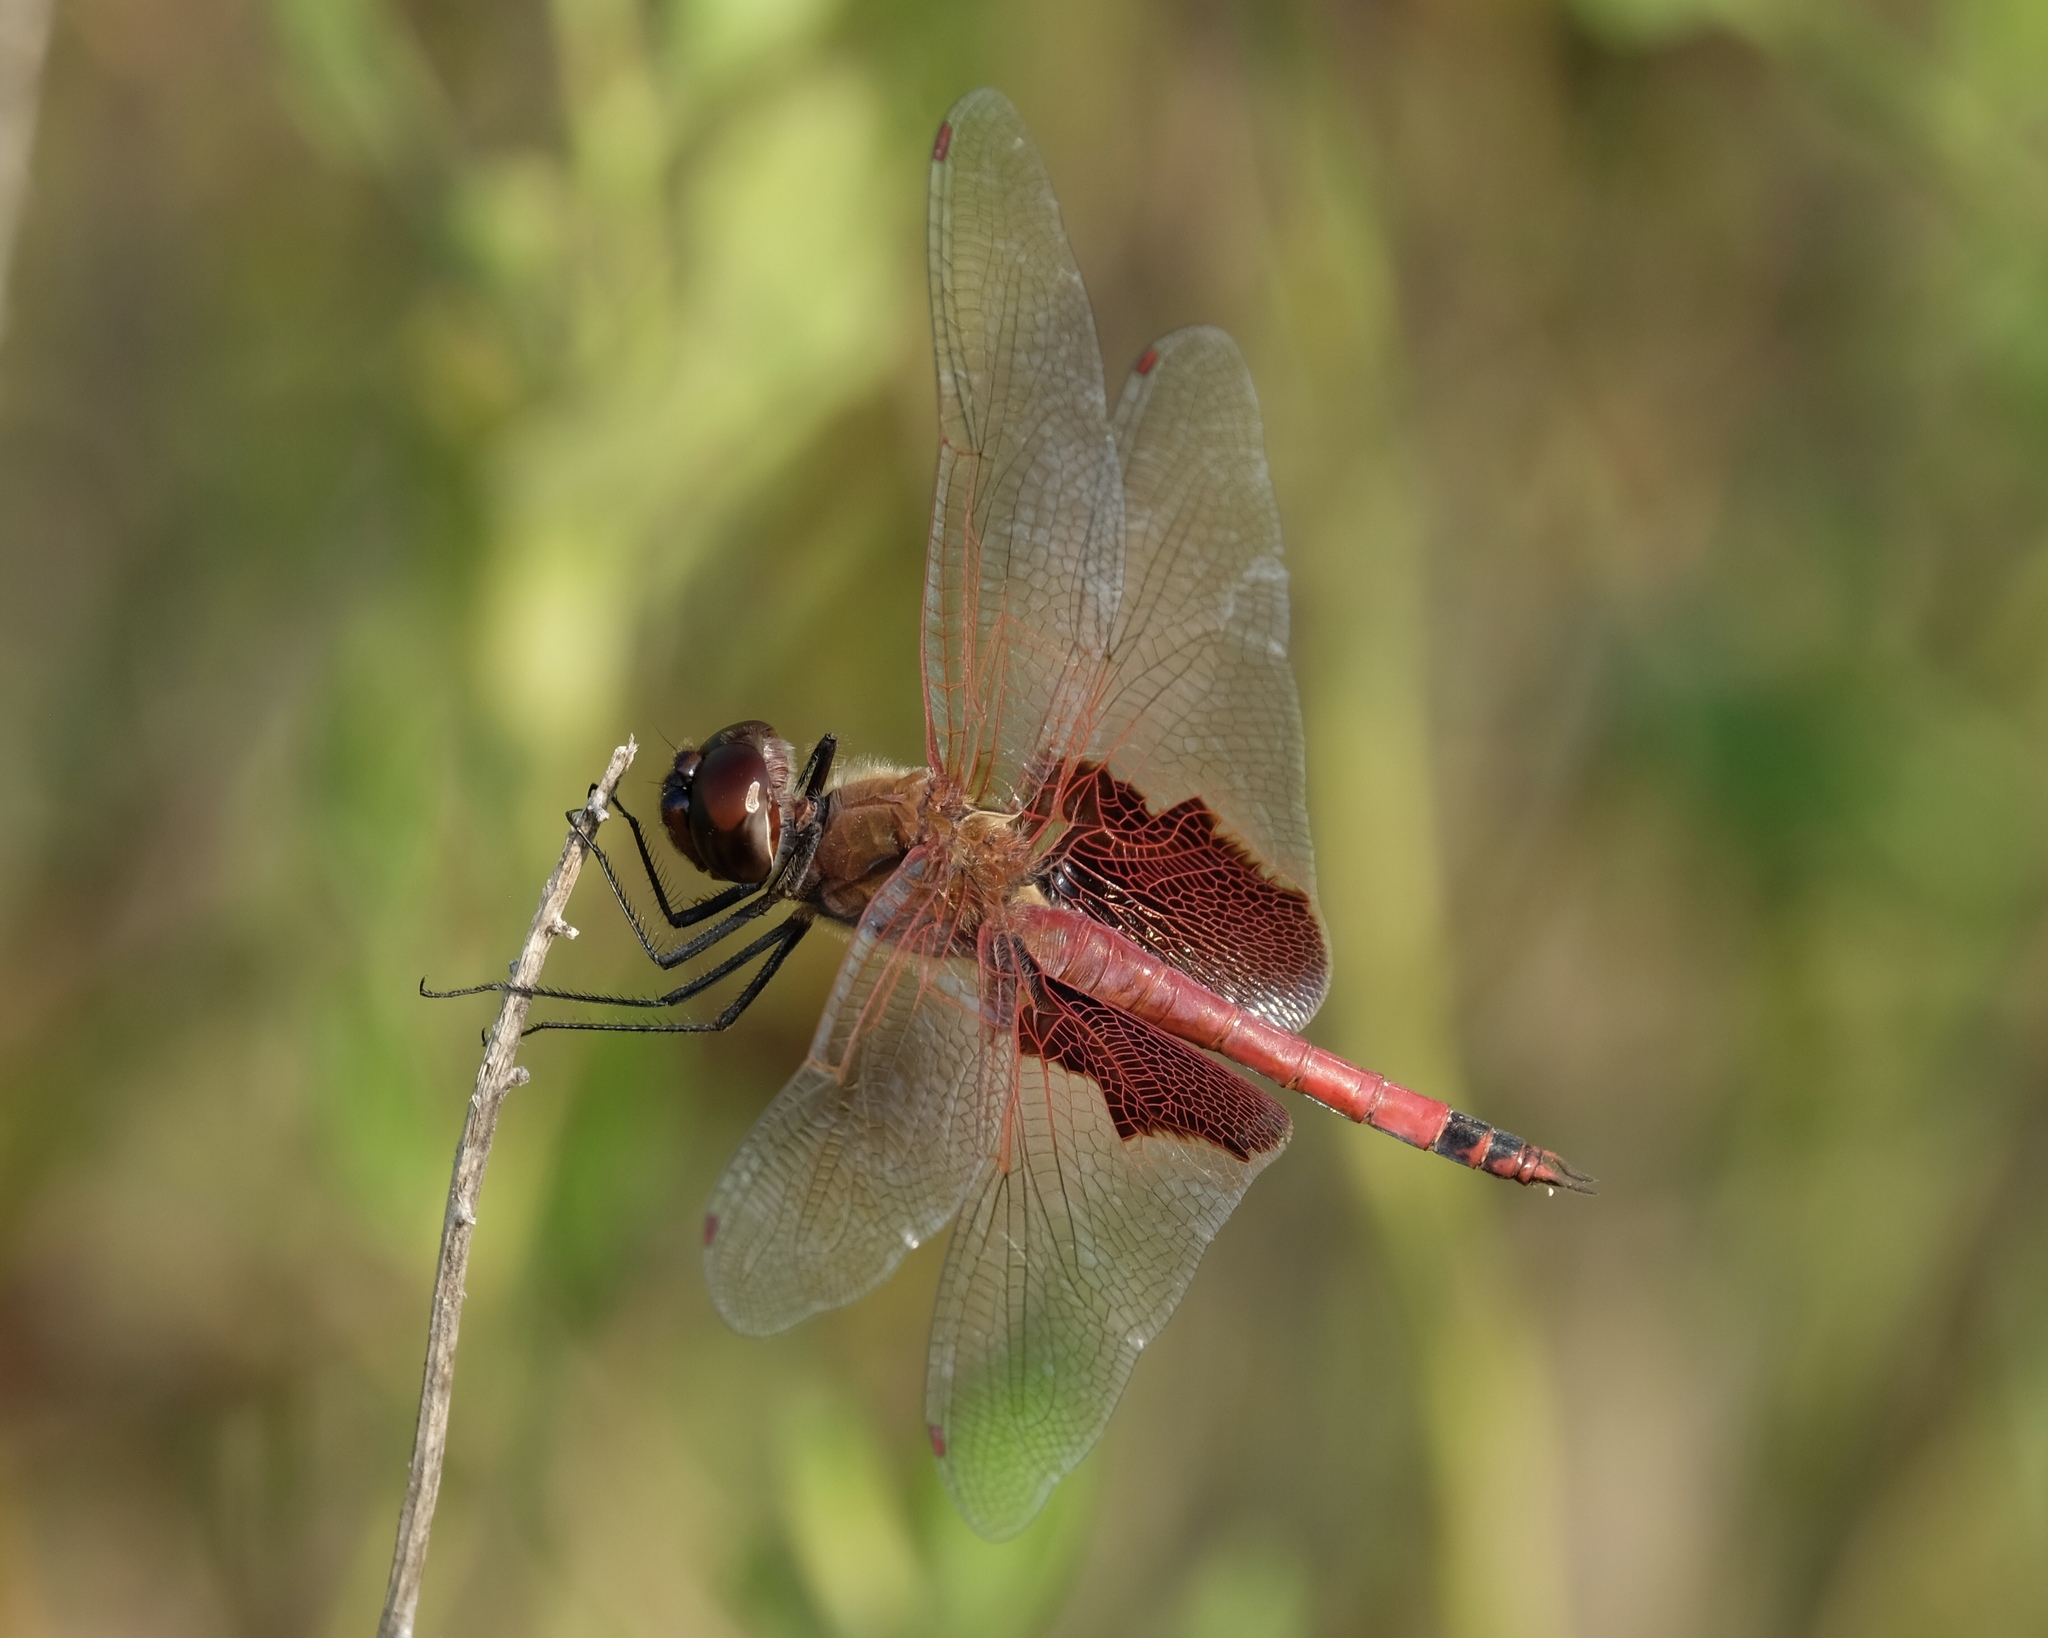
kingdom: Animalia
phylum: Arthropoda
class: Insecta
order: Odonata
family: Libellulidae
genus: Tramea
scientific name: Tramea carolina
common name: Carolina saddlebags
